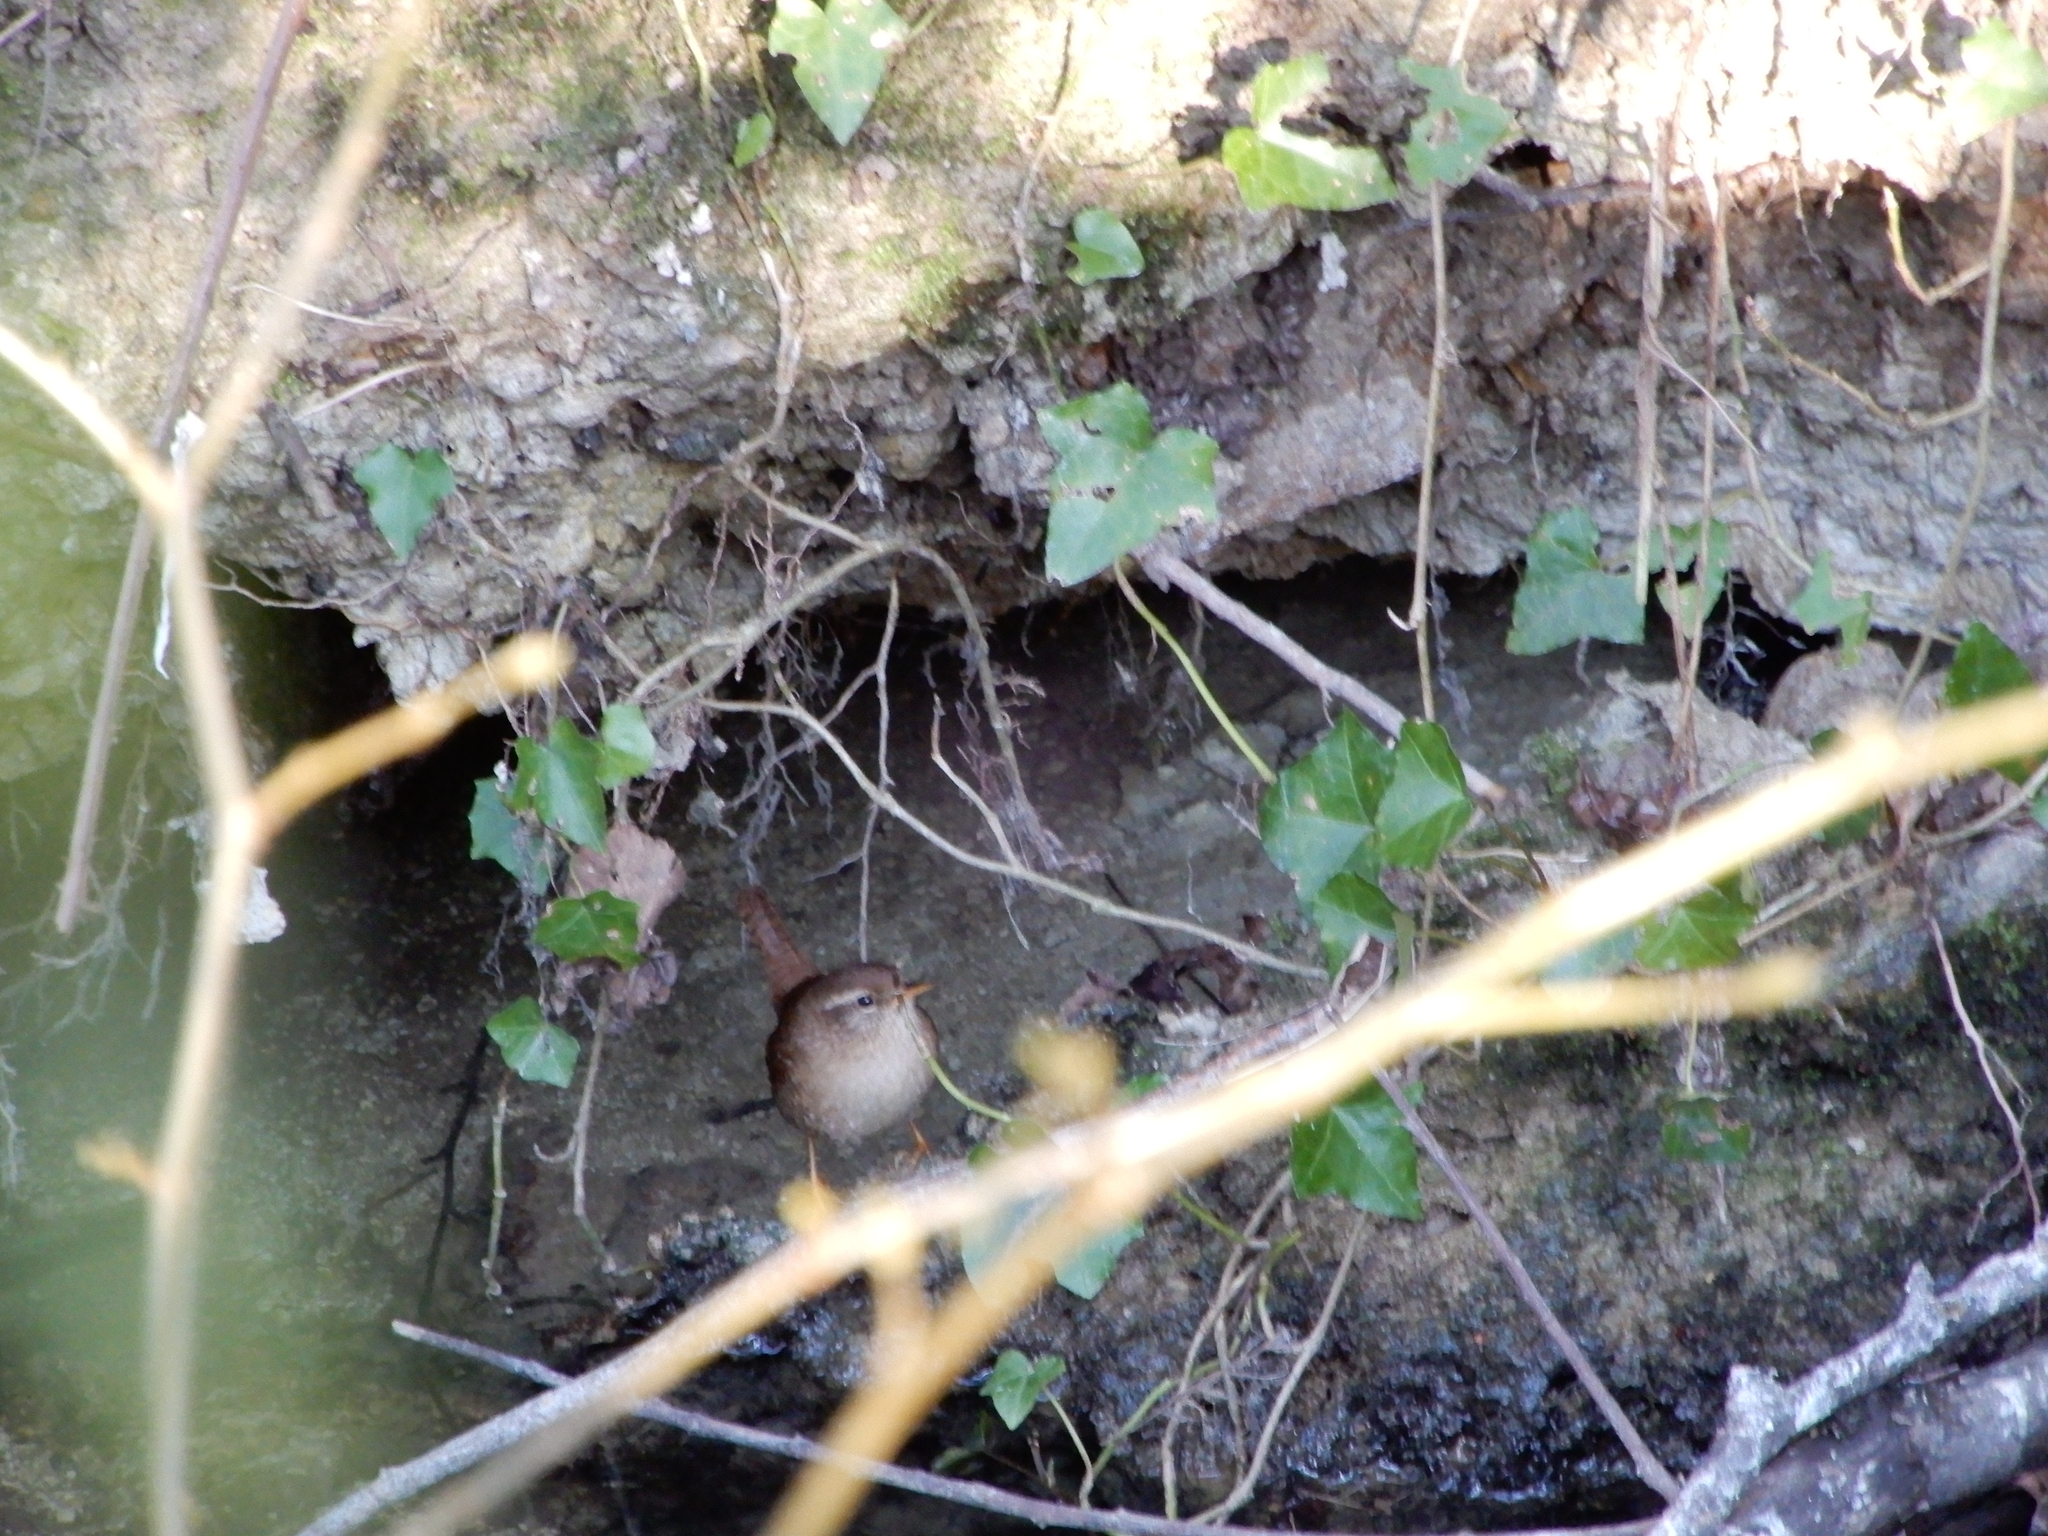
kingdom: Animalia
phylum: Chordata
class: Aves
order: Passeriformes
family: Troglodytidae
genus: Troglodytes
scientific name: Troglodytes troglodytes
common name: Eurasian wren
